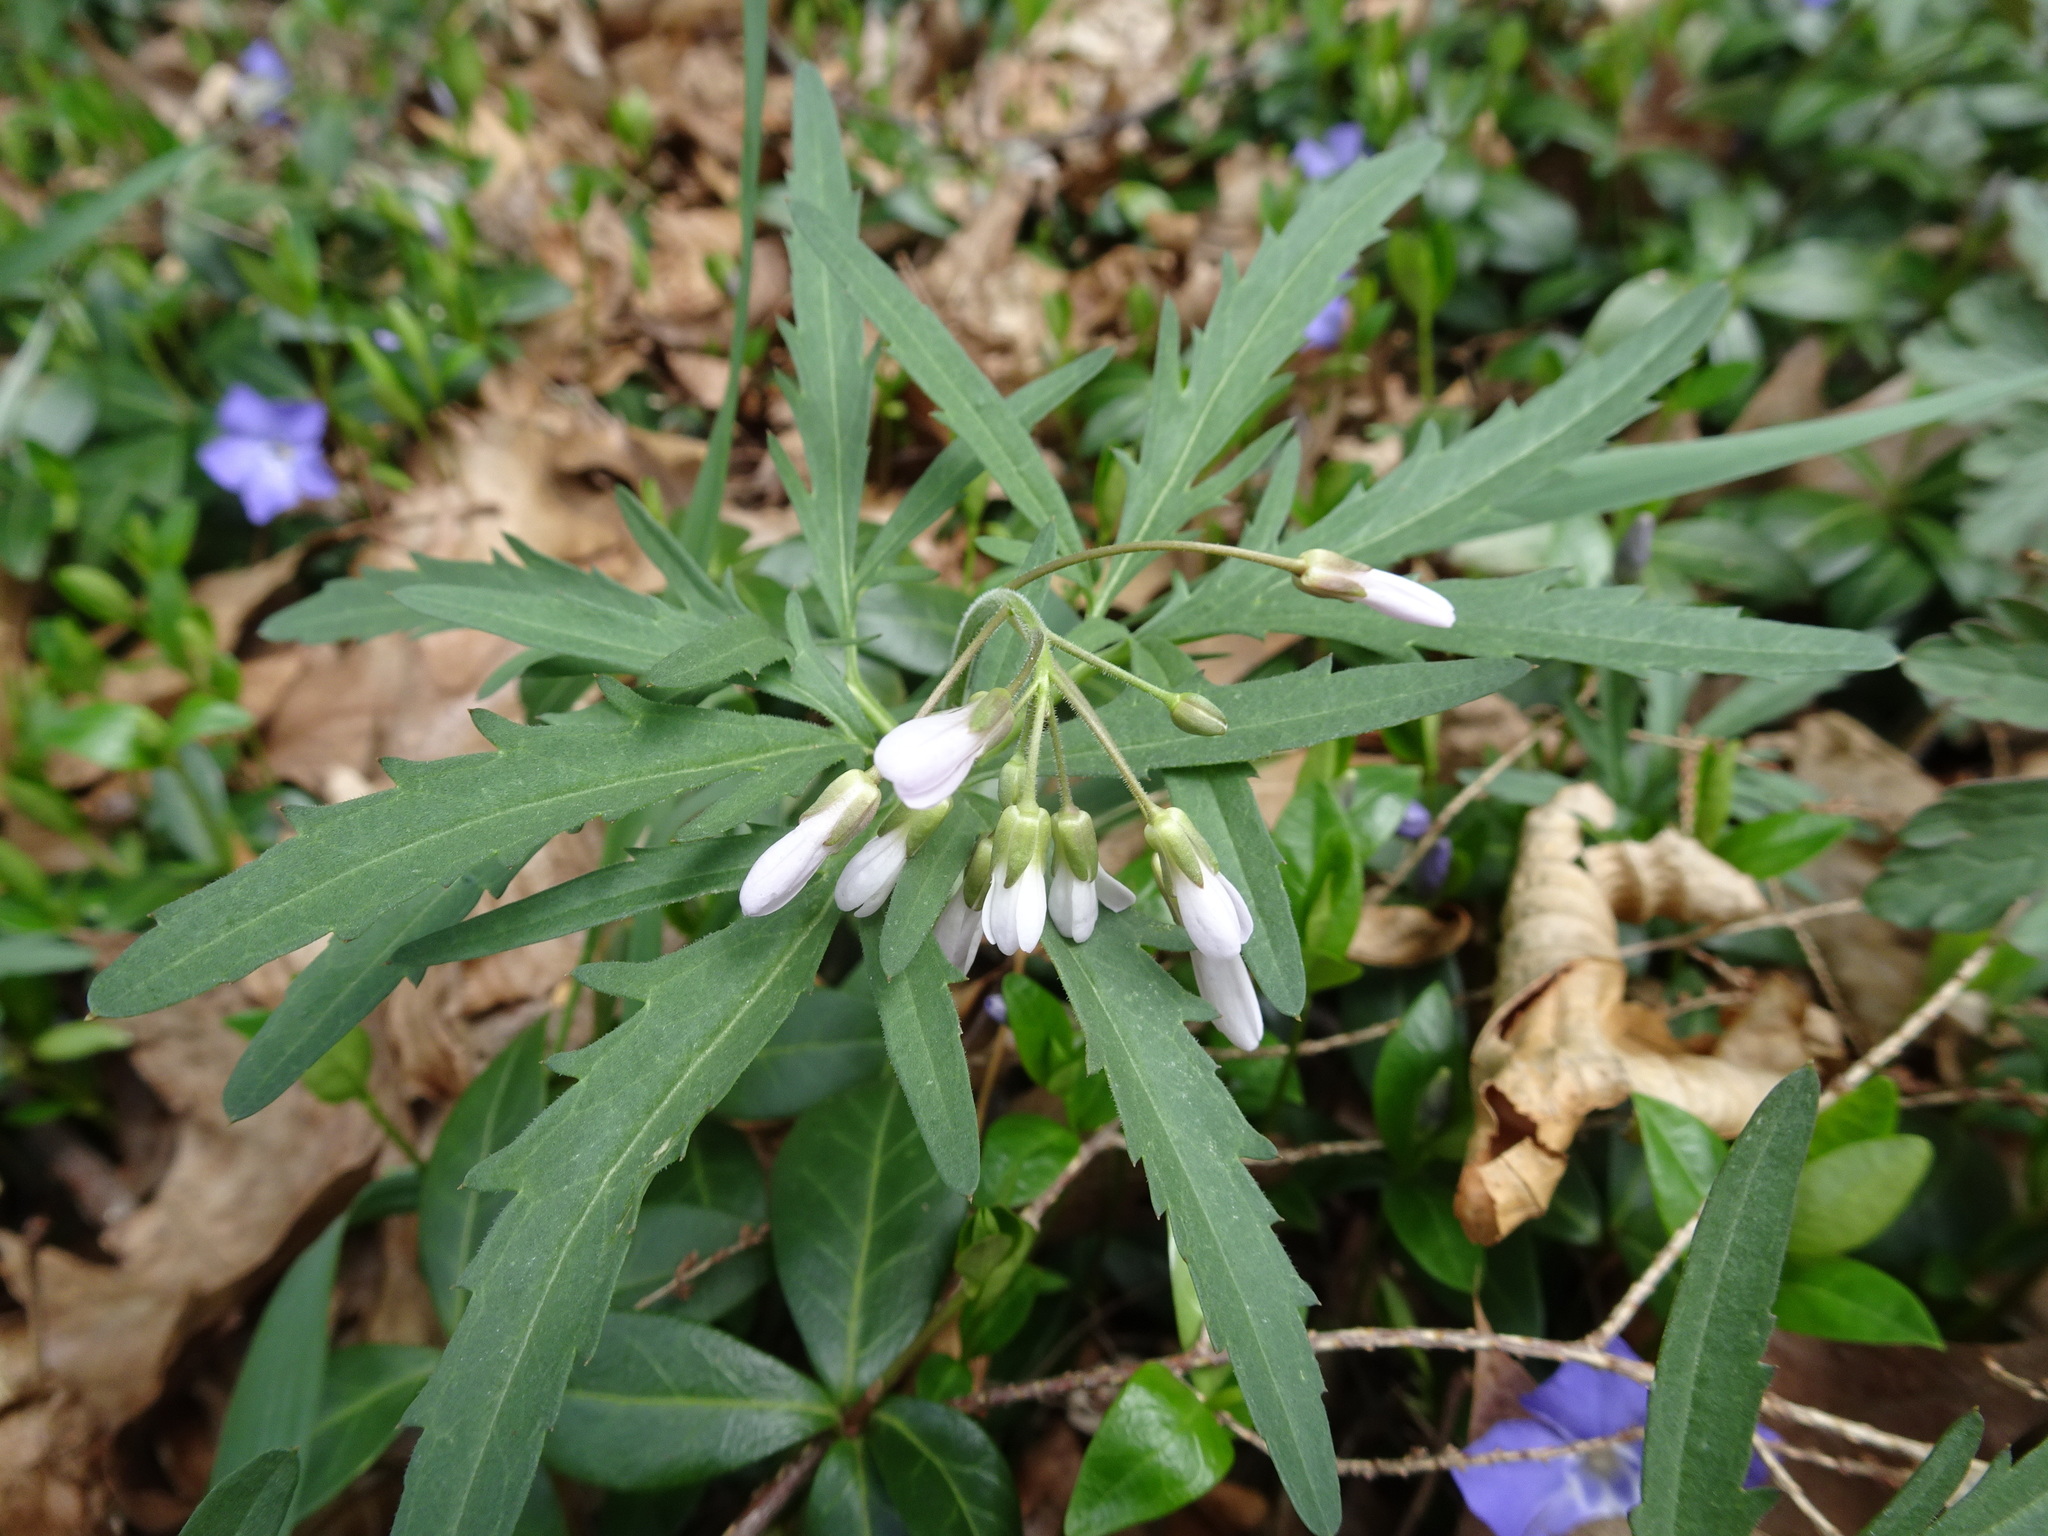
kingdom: Plantae
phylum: Tracheophyta
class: Magnoliopsida
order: Brassicales
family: Brassicaceae
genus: Cardamine
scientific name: Cardamine concatenata
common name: Cut-leaf toothcup
